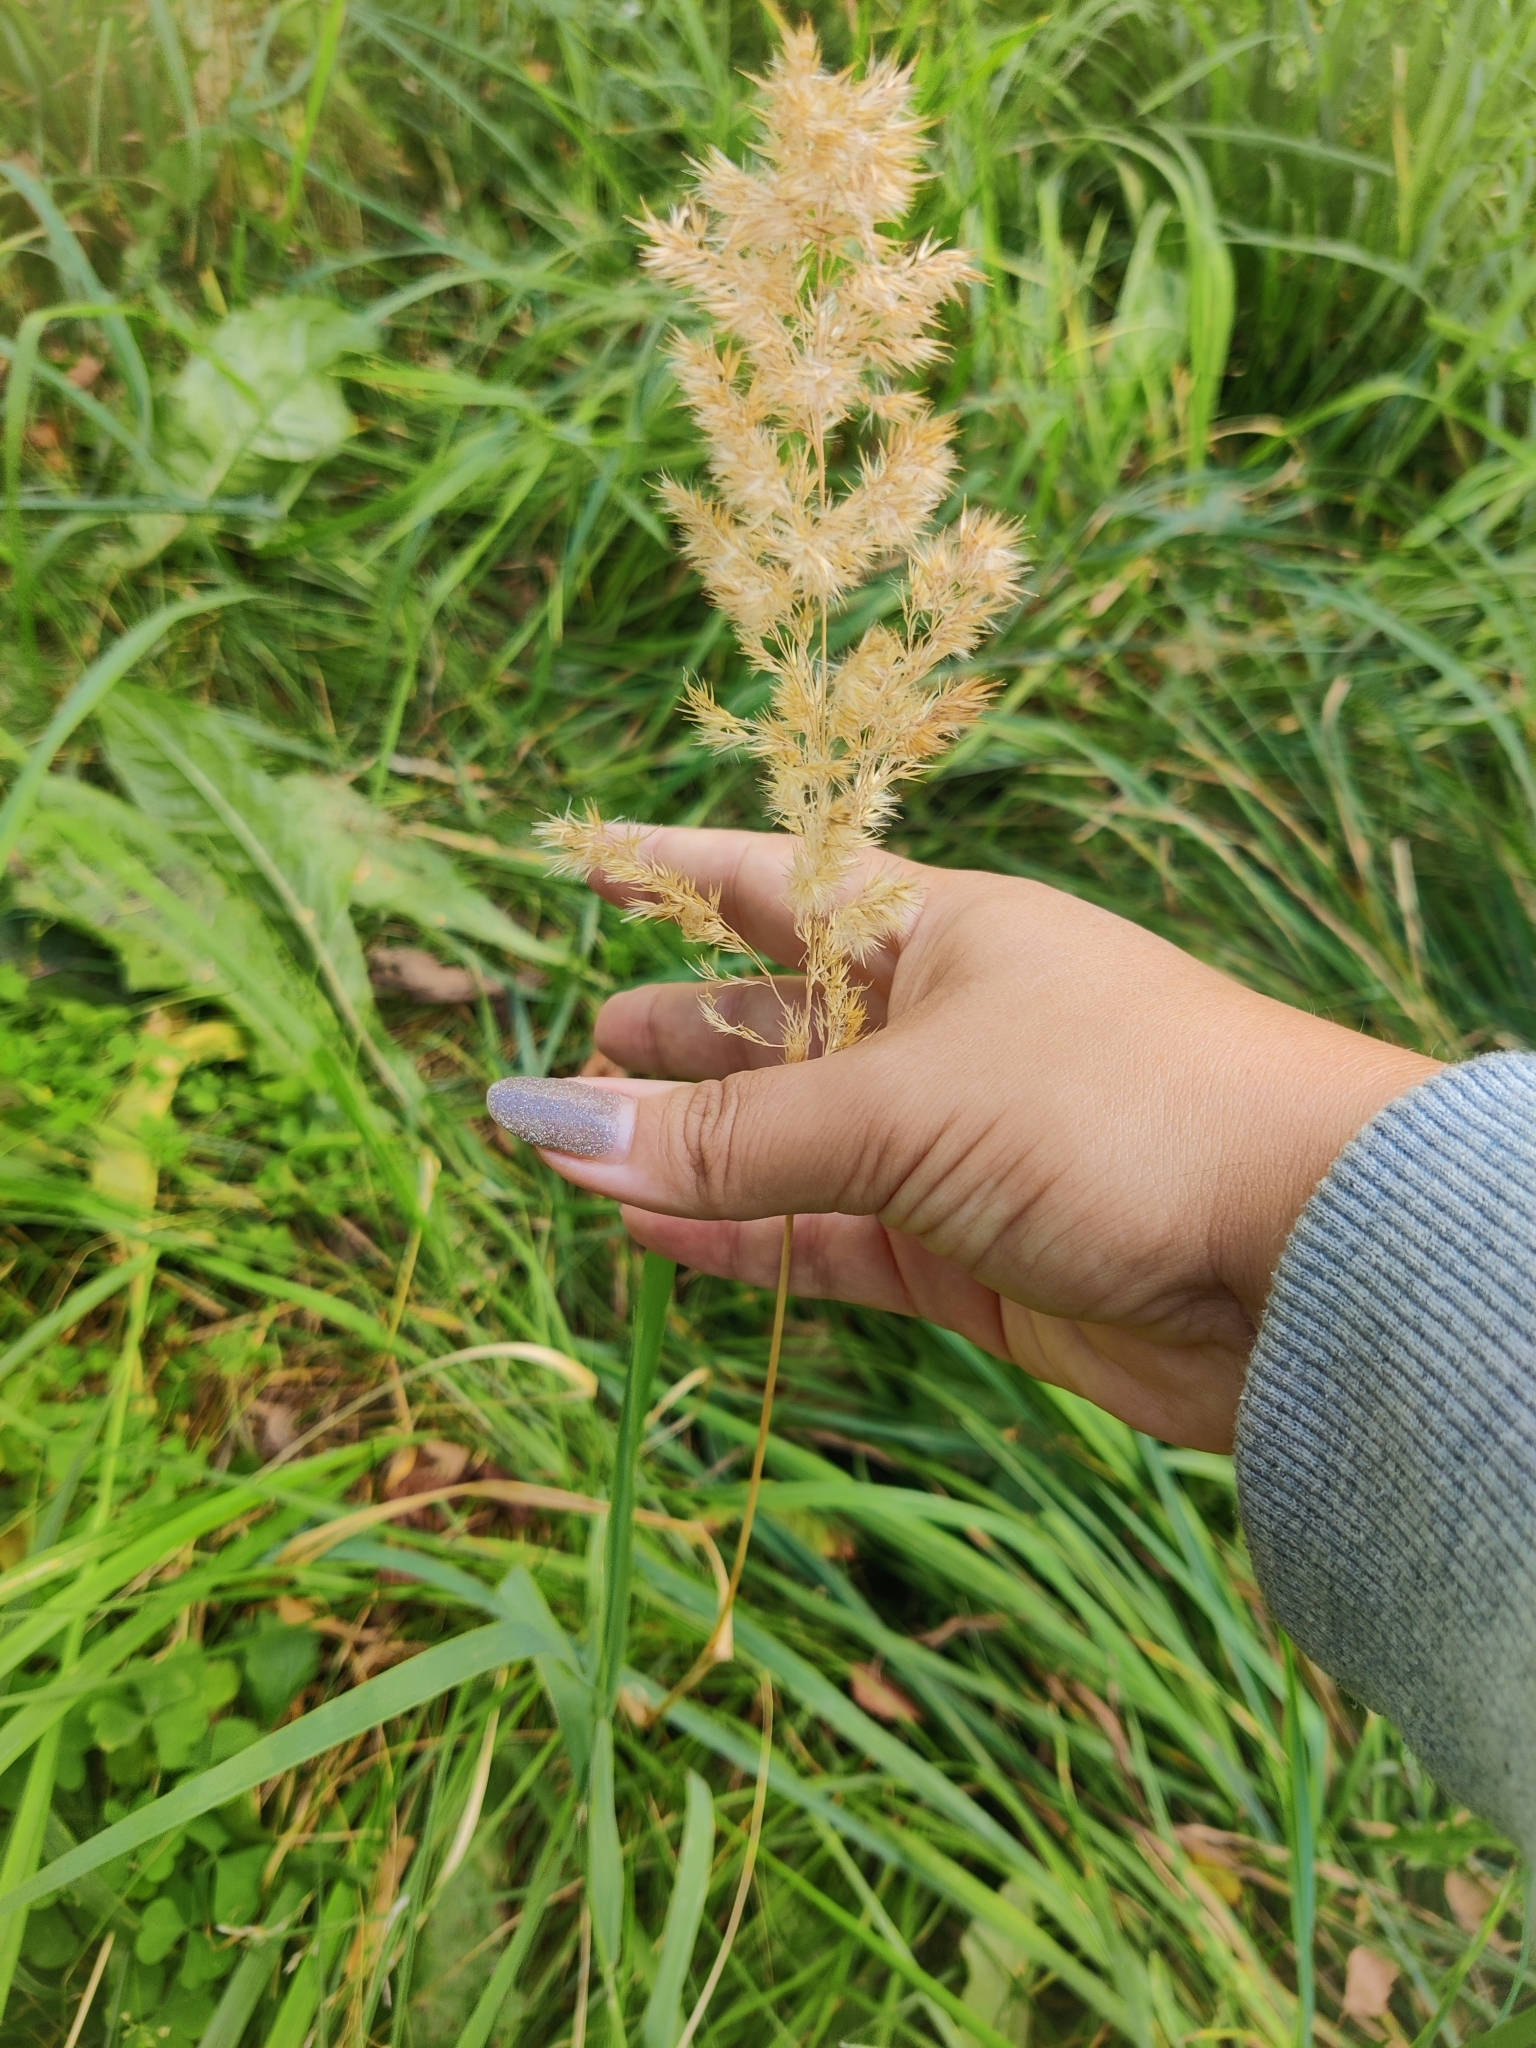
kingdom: Plantae
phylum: Tracheophyta
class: Liliopsida
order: Poales
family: Poaceae
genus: Calamagrostis
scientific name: Calamagrostis epigejos
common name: Wood small-reed
